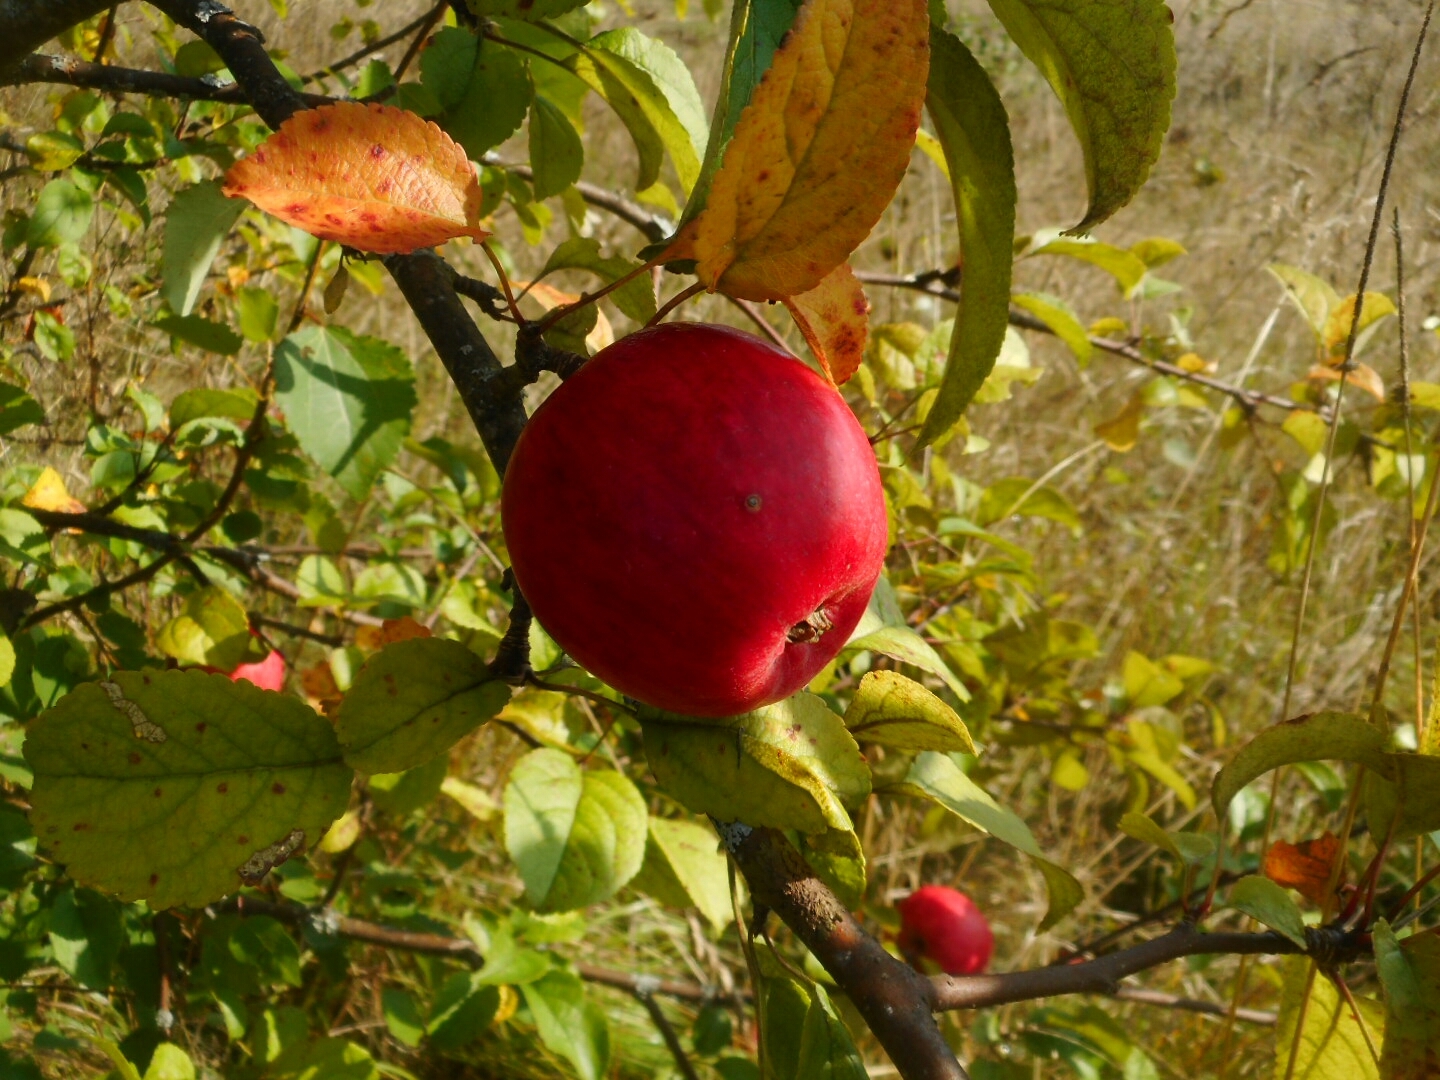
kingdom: Plantae
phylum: Tracheophyta
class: Magnoliopsida
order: Rosales
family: Rosaceae
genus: Malus
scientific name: Malus domestica
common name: Apple
